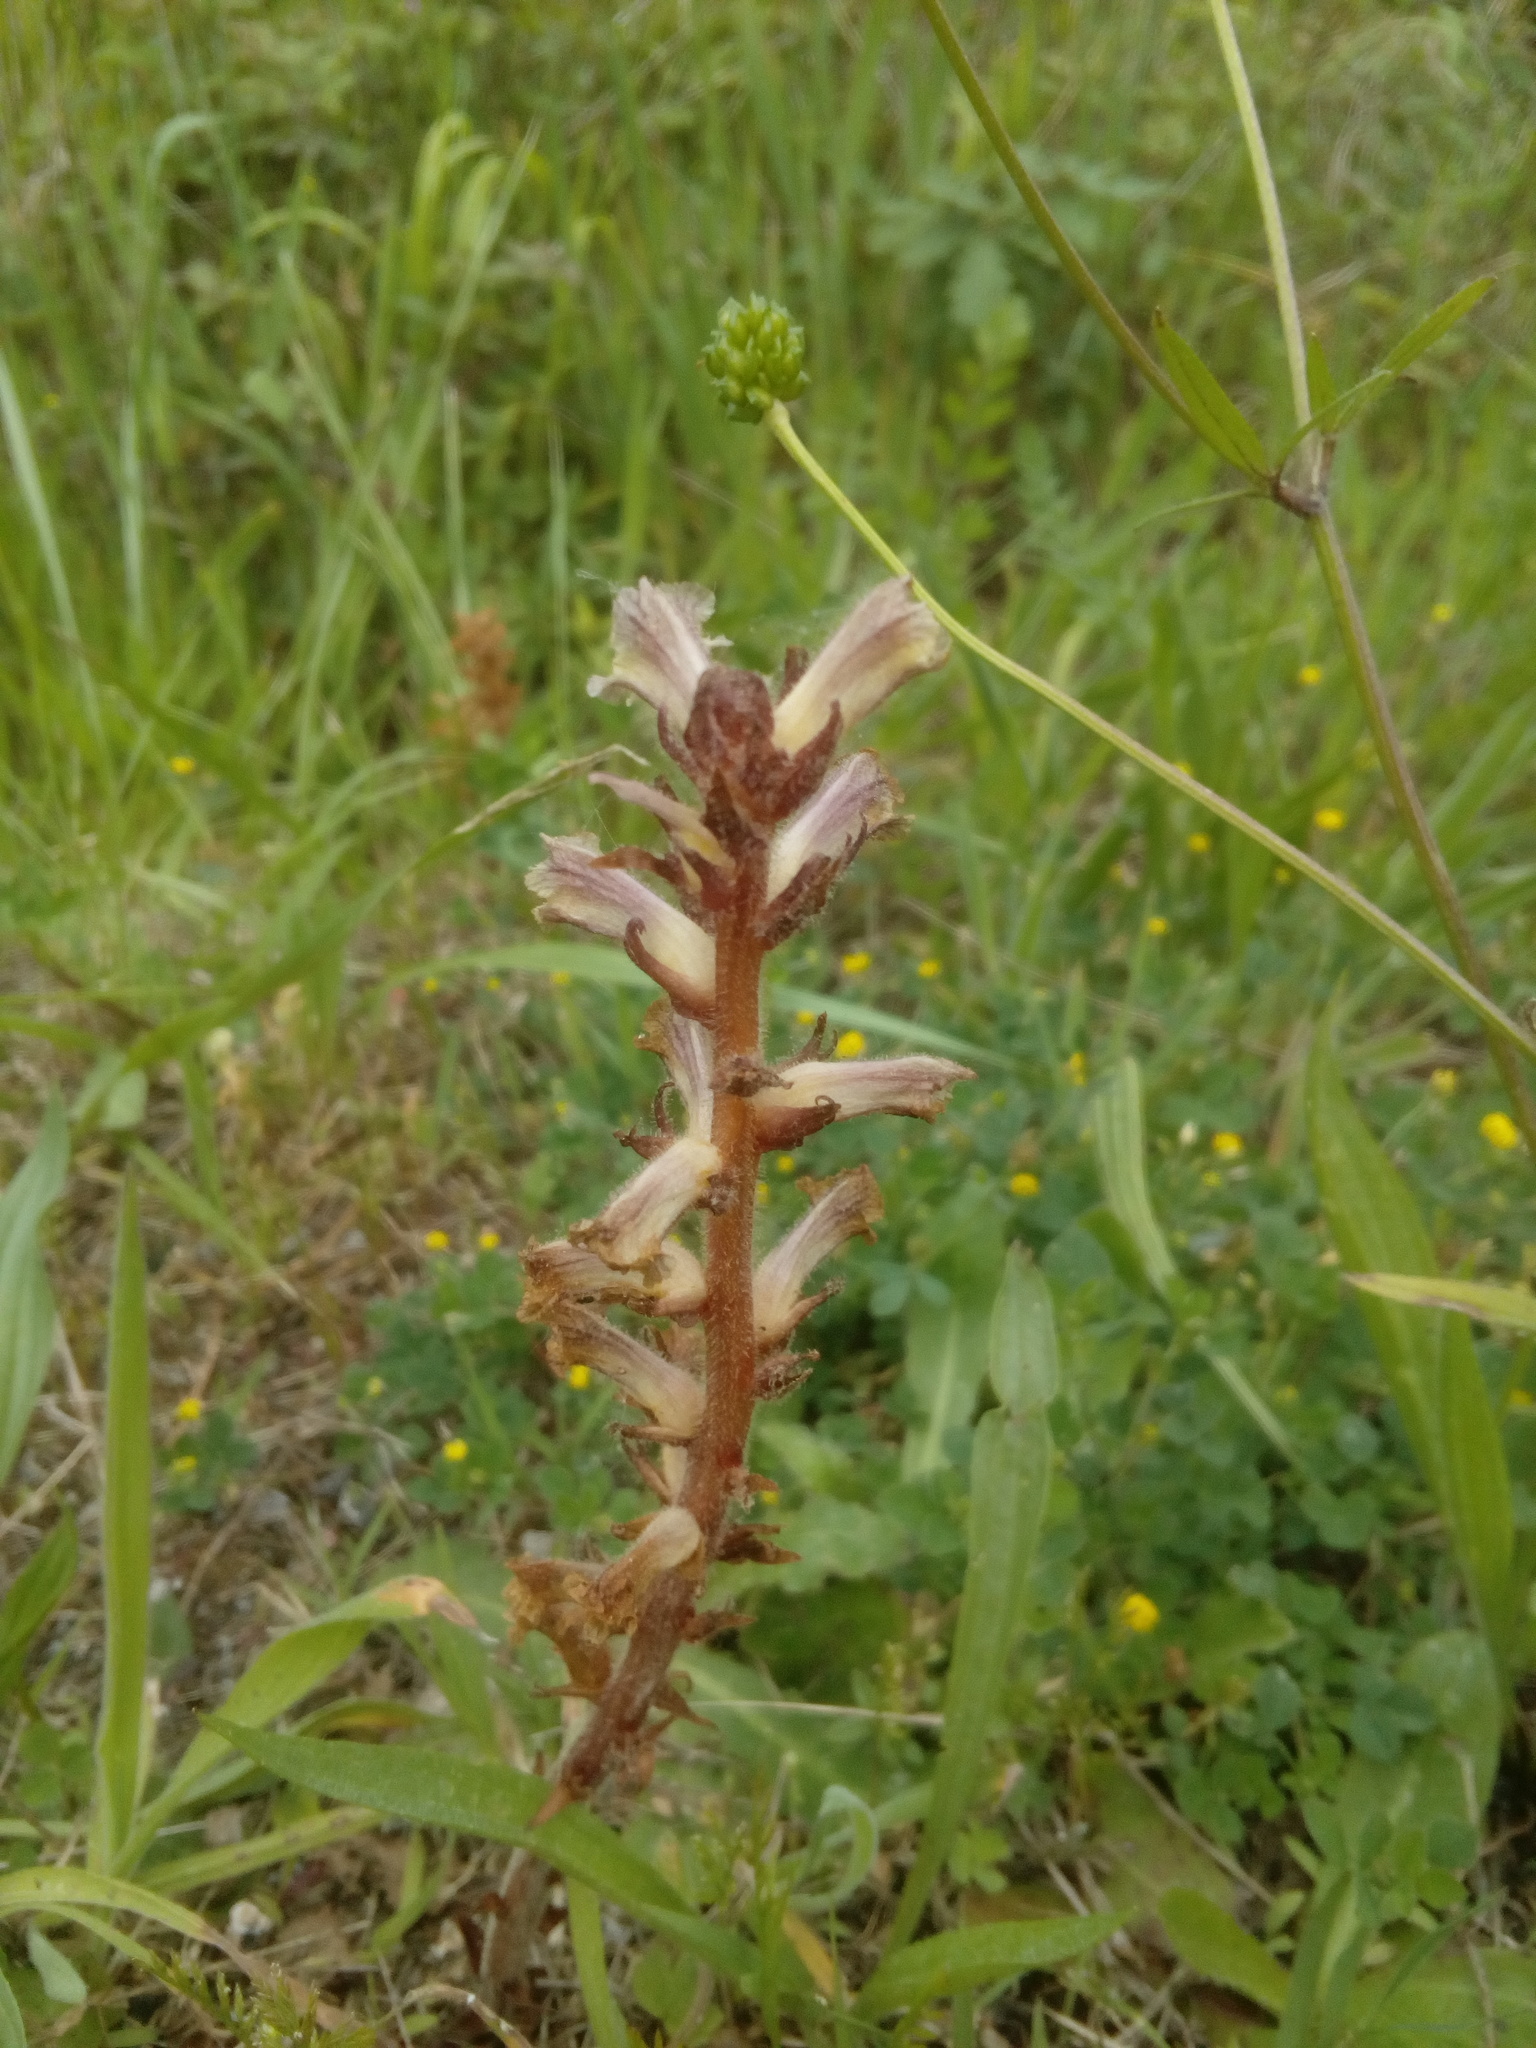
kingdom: Plantae
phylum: Tracheophyta
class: Magnoliopsida
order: Lamiales
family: Orobanchaceae
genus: Orobanche
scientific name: Orobanche minor
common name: Common broomrape
